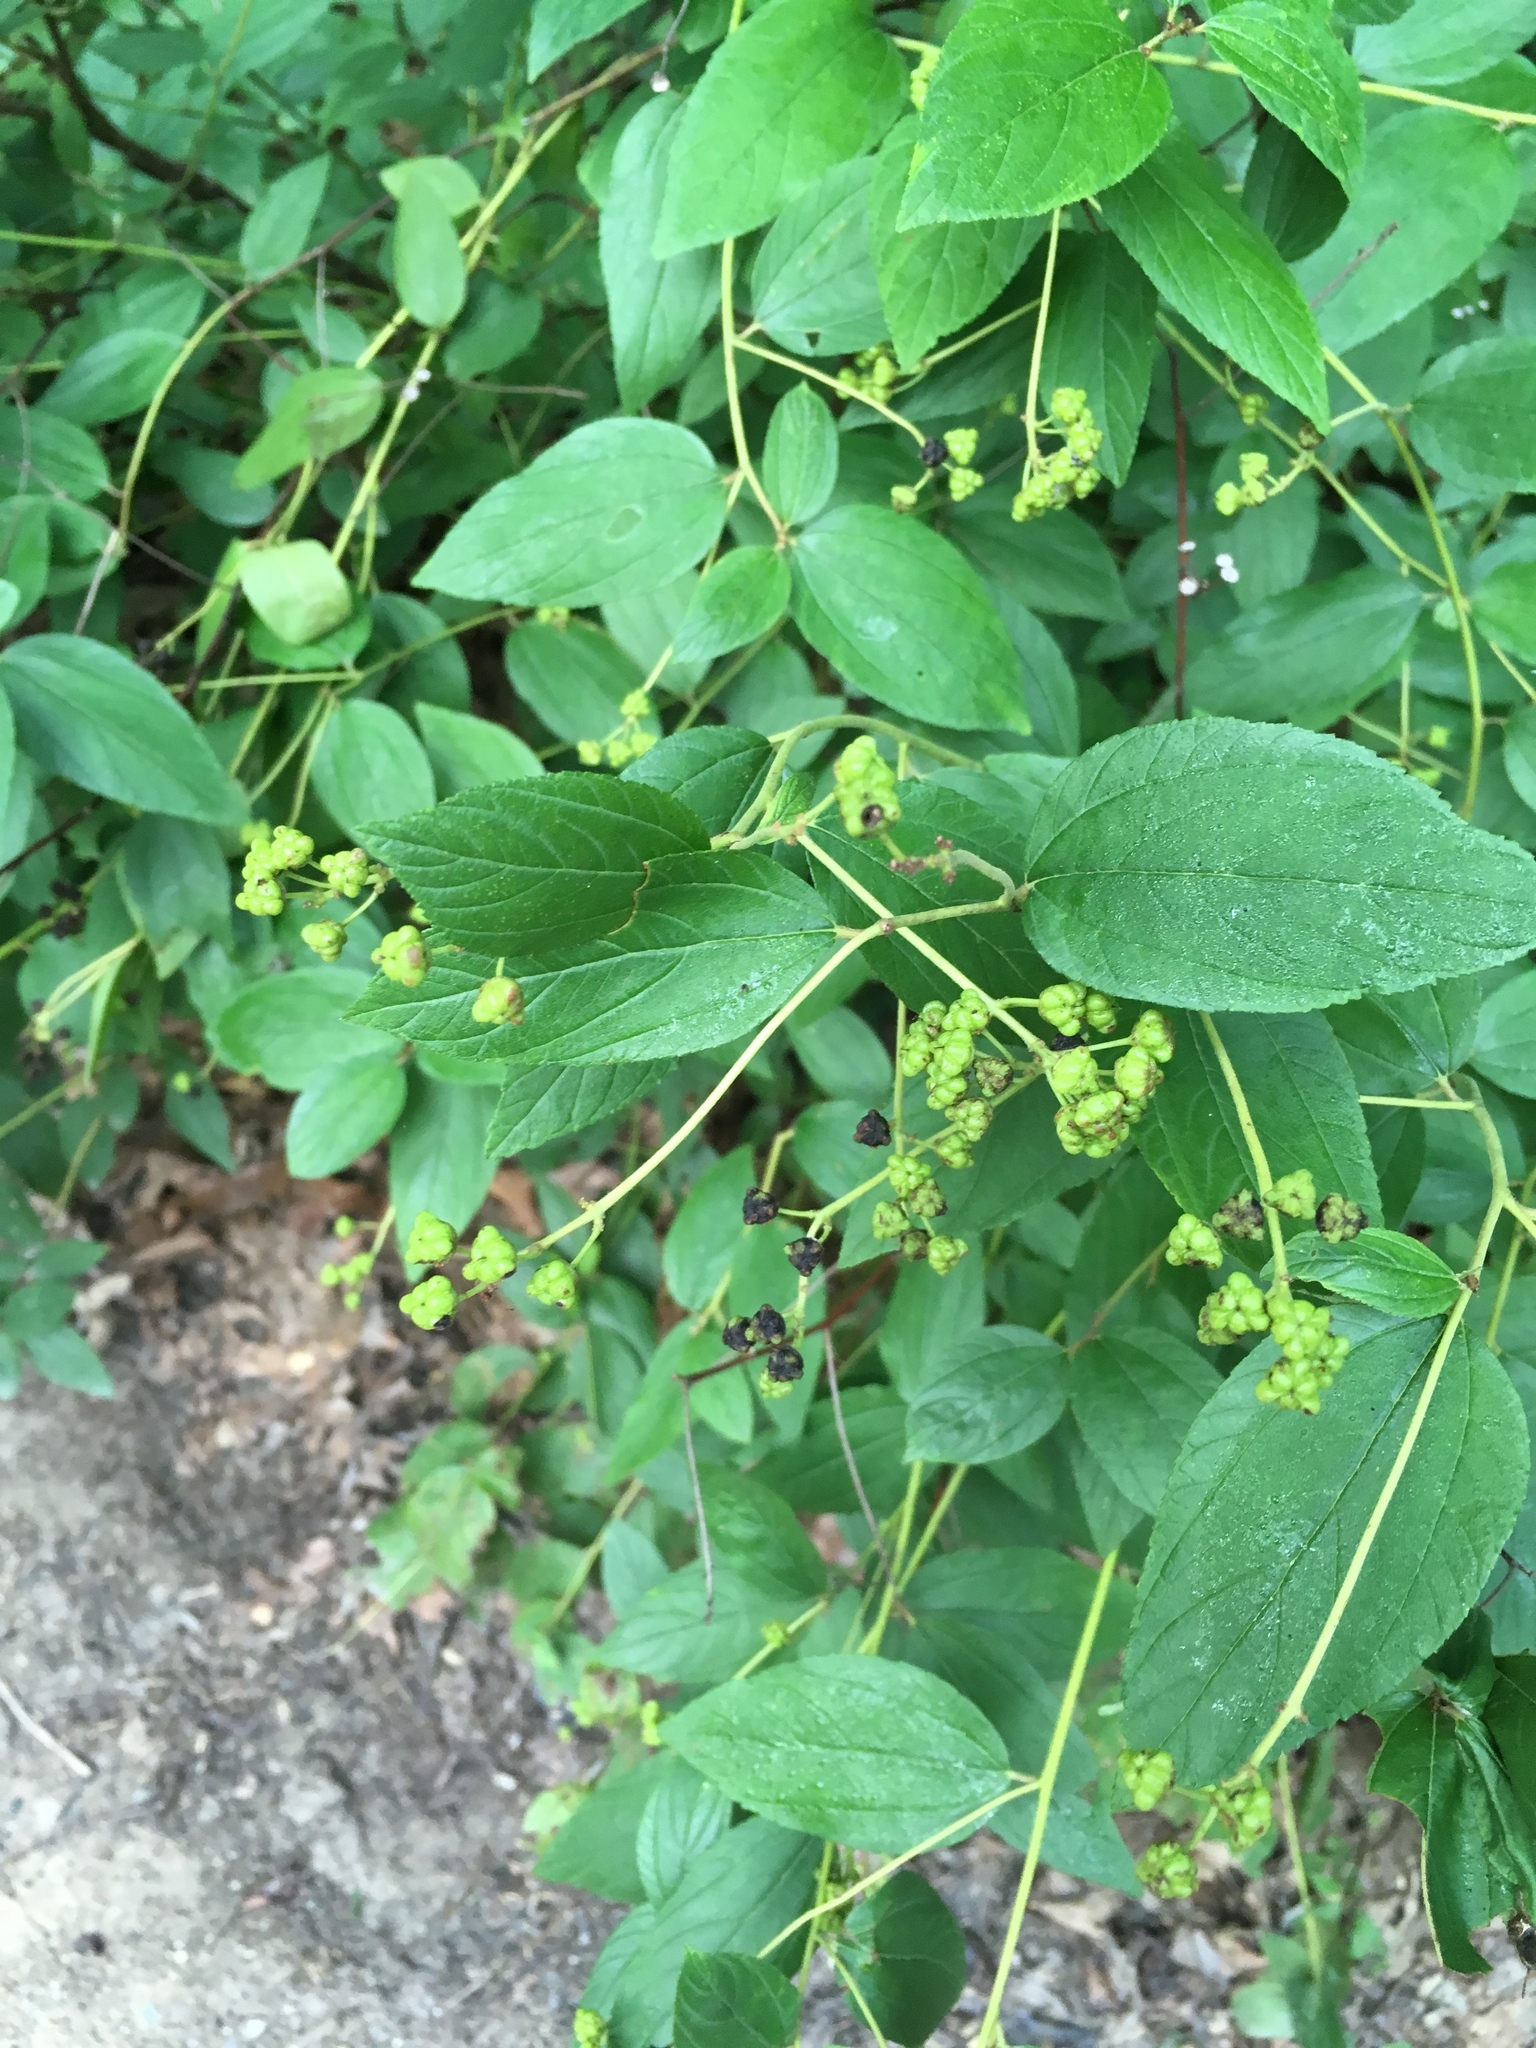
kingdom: Plantae
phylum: Tracheophyta
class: Magnoliopsida
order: Rosales
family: Rhamnaceae
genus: Ceanothus
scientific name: Ceanothus americanus
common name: Redroot
